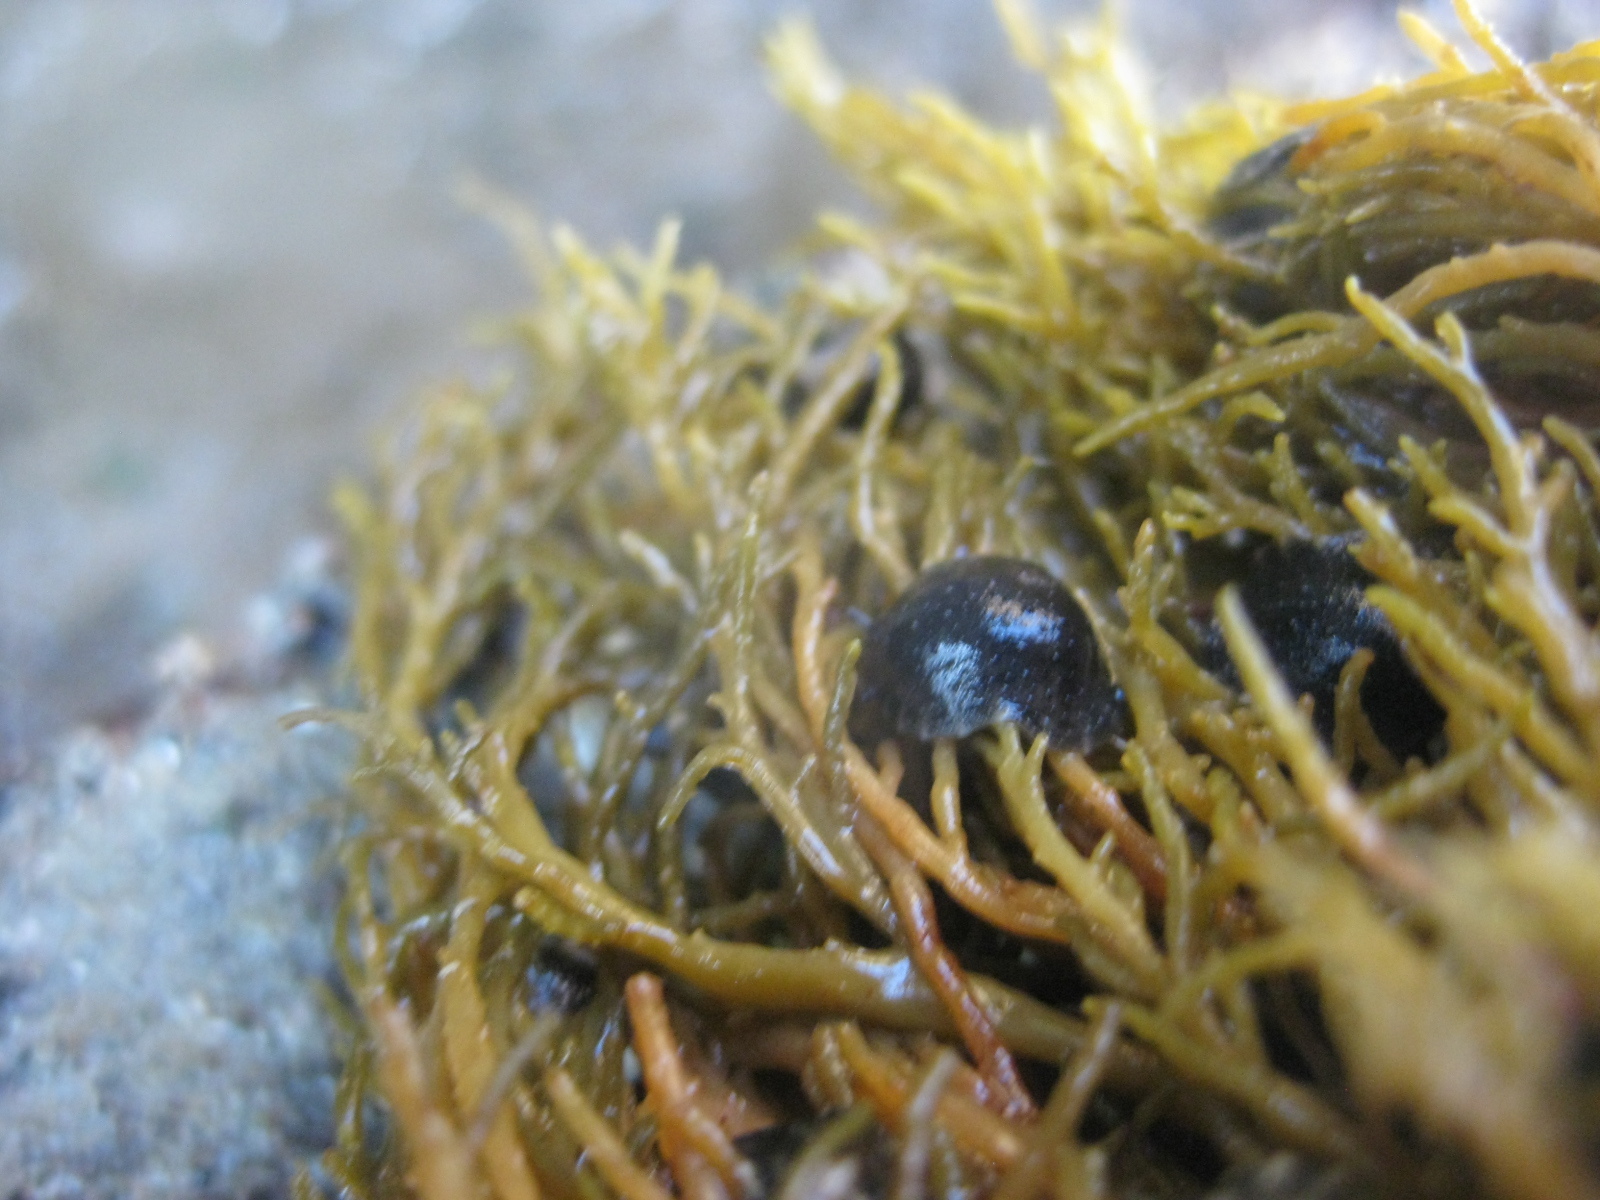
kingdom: Animalia
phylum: Mollusca
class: Gastropoda
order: Systellommatophora
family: Onchidiidae
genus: Onchidella
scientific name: Onchidella nigricans
